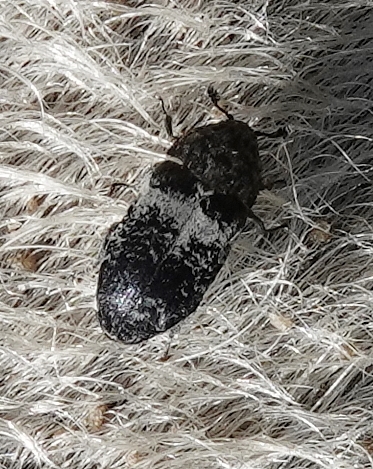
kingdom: Animalia
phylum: Arthropoda
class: Insecta
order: Coleoptera
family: Dermestidae
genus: Dermestes
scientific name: Dermestes fasciatus
